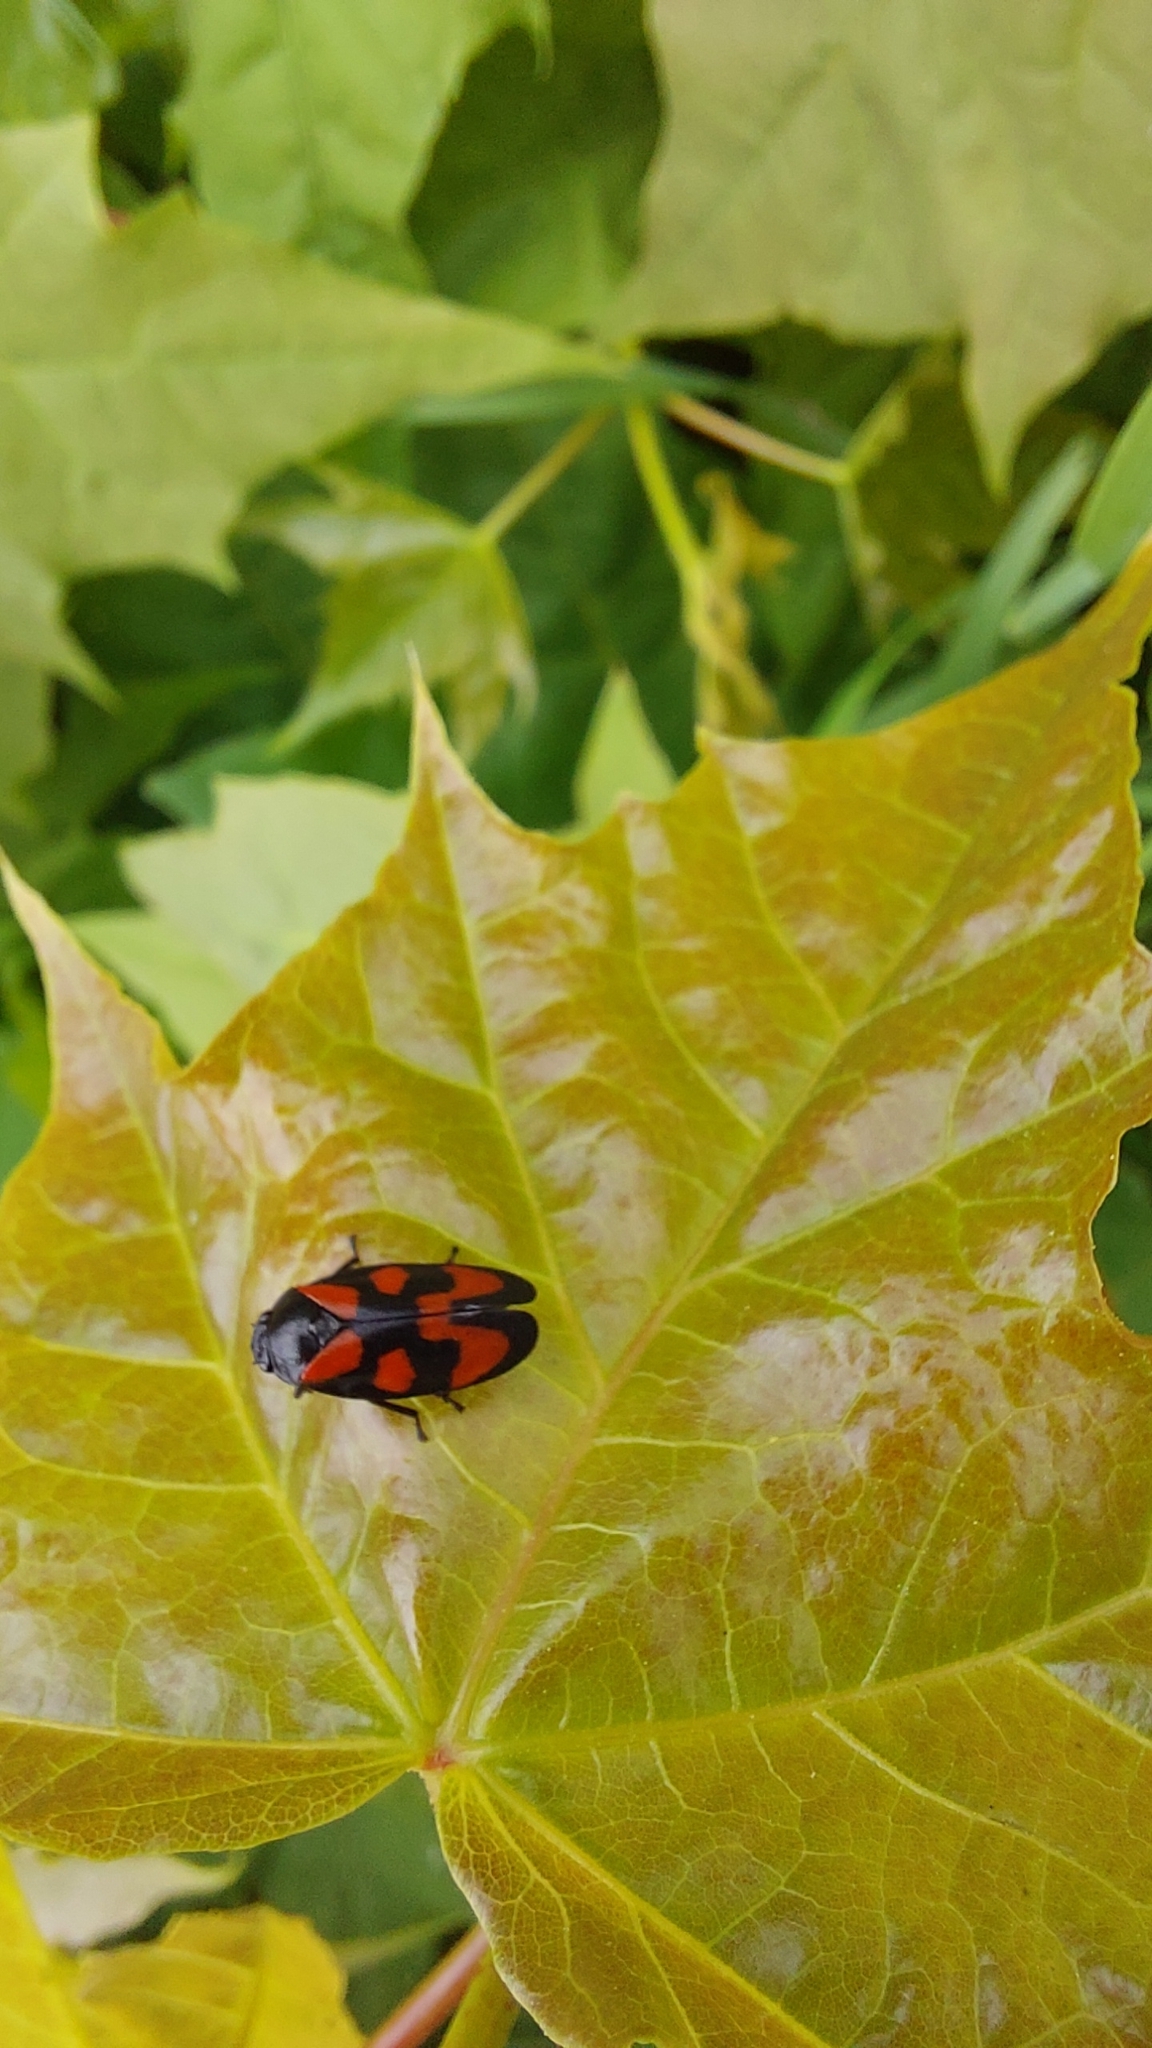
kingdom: Animalia
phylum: Arthropoda
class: Insecta
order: Hemiptera
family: Cercopidae
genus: Cercopis
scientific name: Cercopis vulnerata
